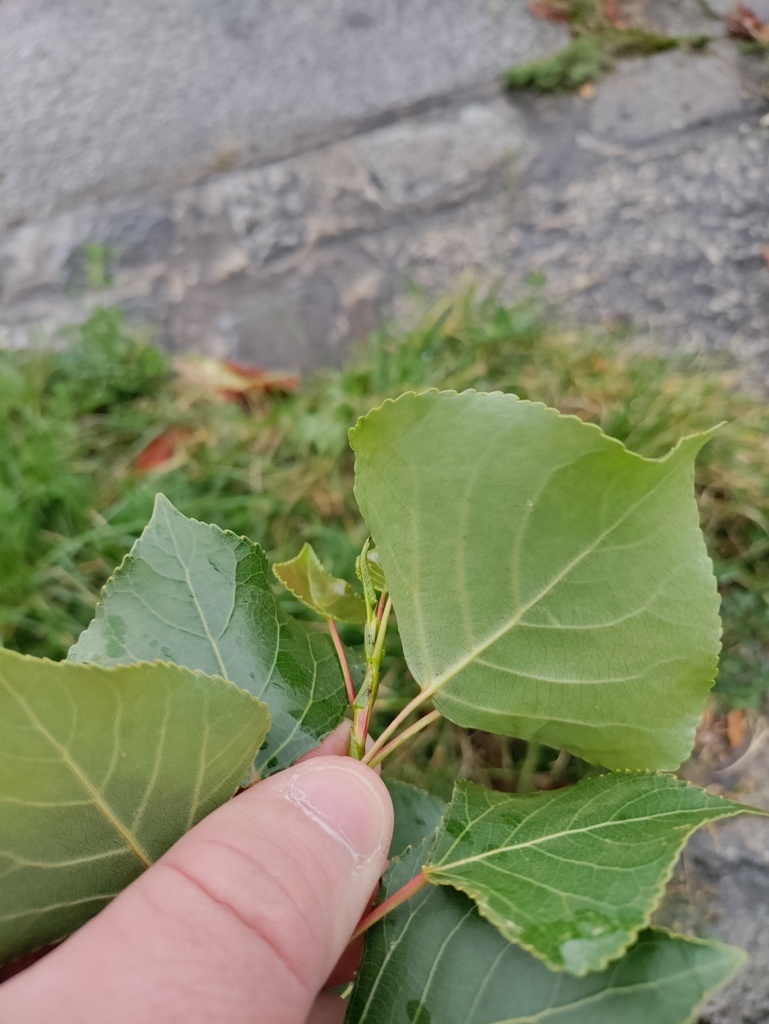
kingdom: Plantae
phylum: Tracheophyta
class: Magnoliopsida
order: Malpighiales
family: Salicaceae
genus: Populus
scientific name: Populus nigra
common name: Black poplar
